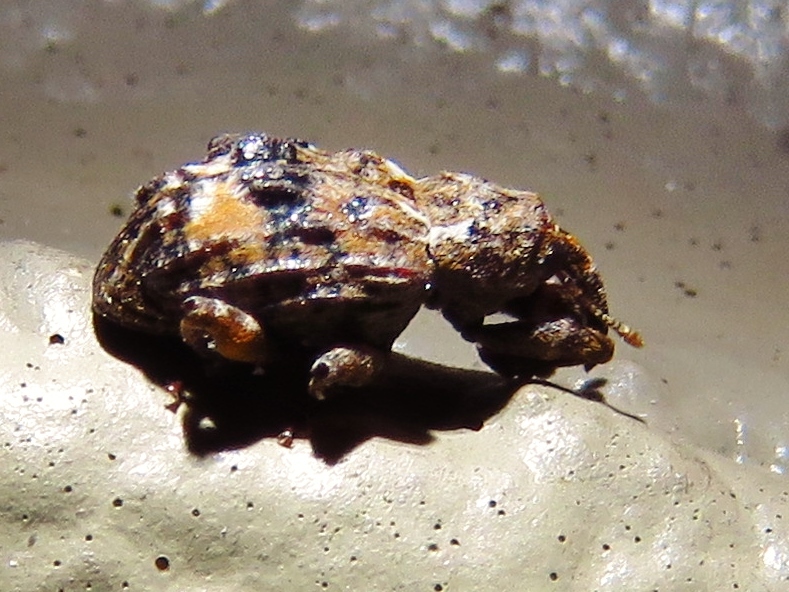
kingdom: Animalia
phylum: Arthropoda
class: Insecta
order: Coleoptera
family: Curculionidae
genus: Conotrachelus
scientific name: Conotrachelus nenuphar
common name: Plum curculio
